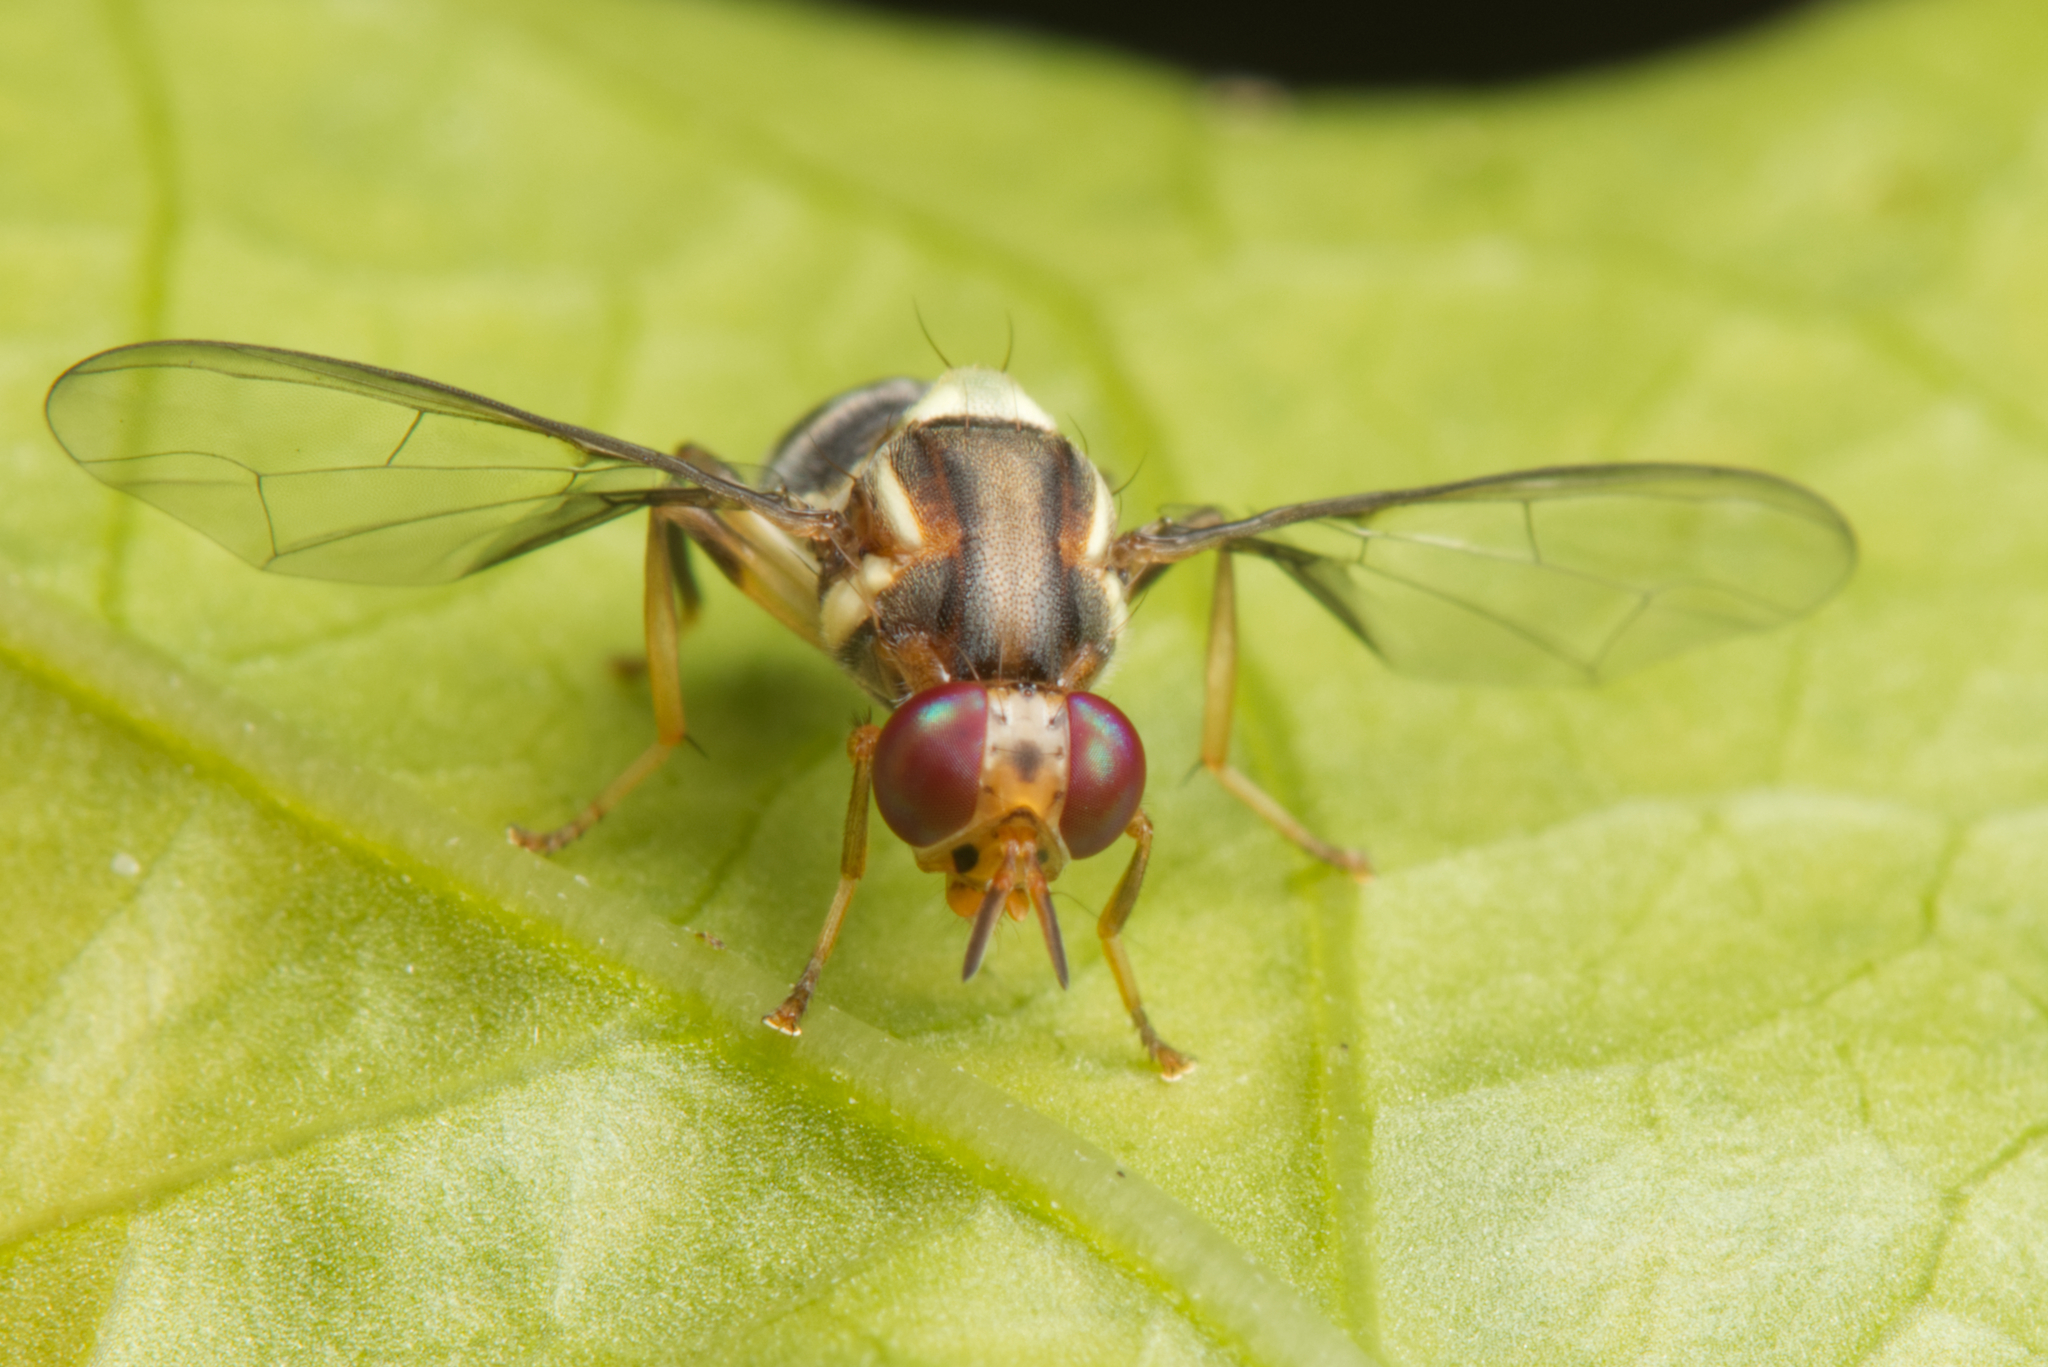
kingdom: Animalia
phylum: Arthropoda
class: Insecta
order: Diptera
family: Tephritidae
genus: Bactrocera
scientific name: Bactrocera neohumeralis
